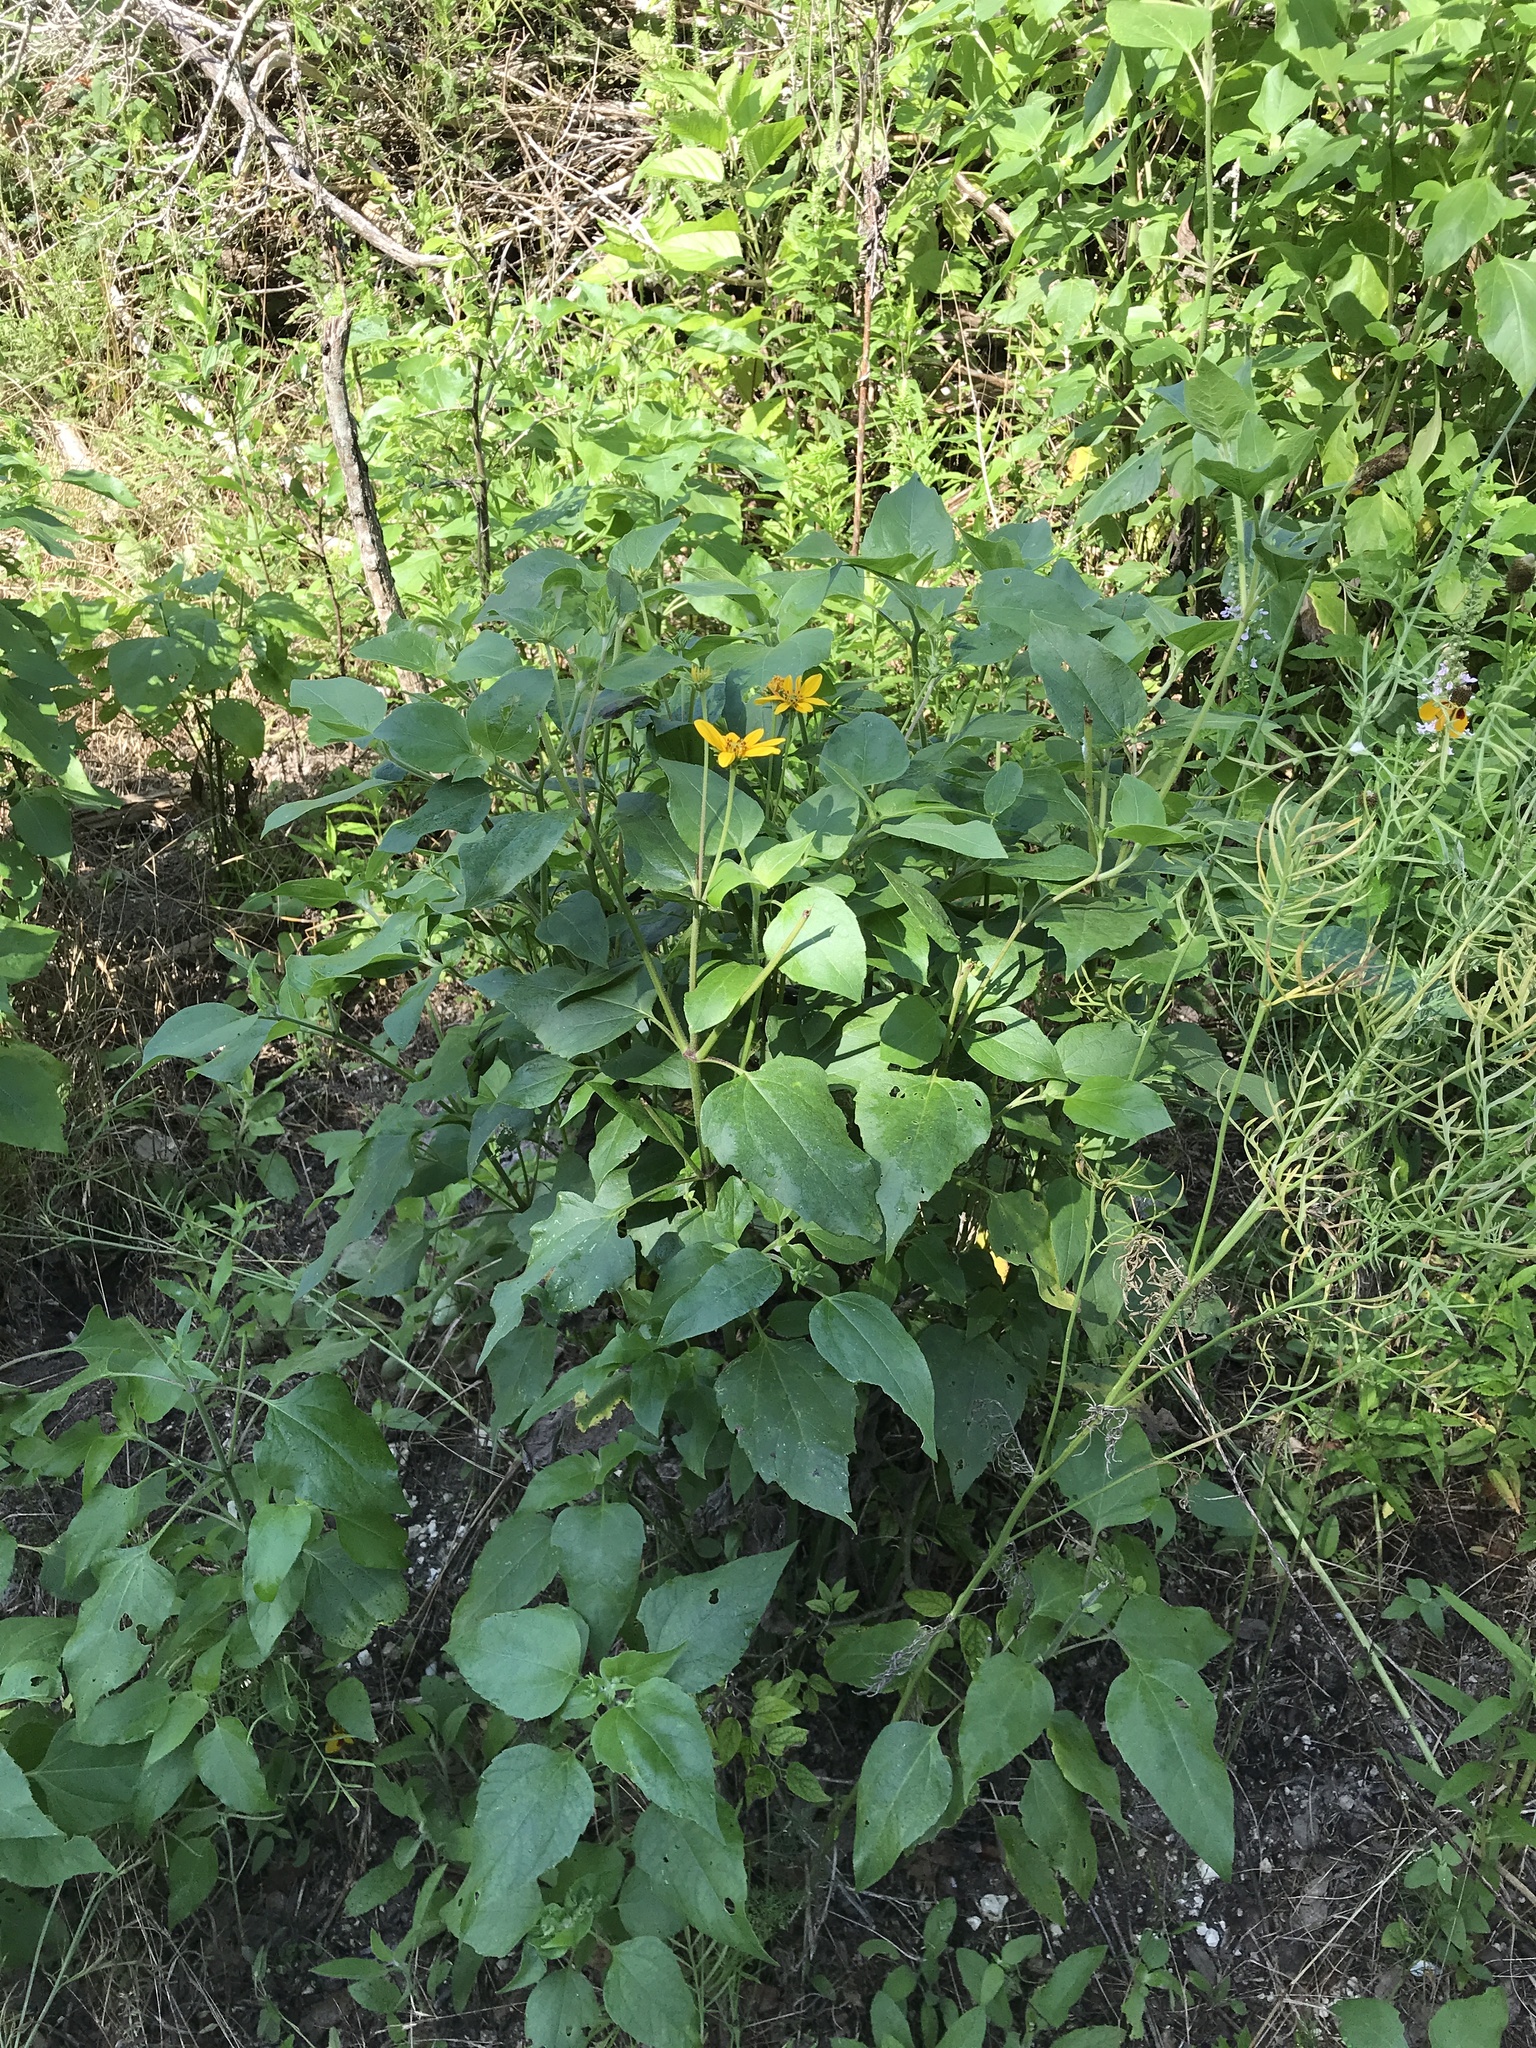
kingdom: Plantae
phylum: Tracheophyta
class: Magnoliopsida
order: Asterales
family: Asteraceae
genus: Viguiera
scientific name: Viguiera dentata
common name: Toothleaf
